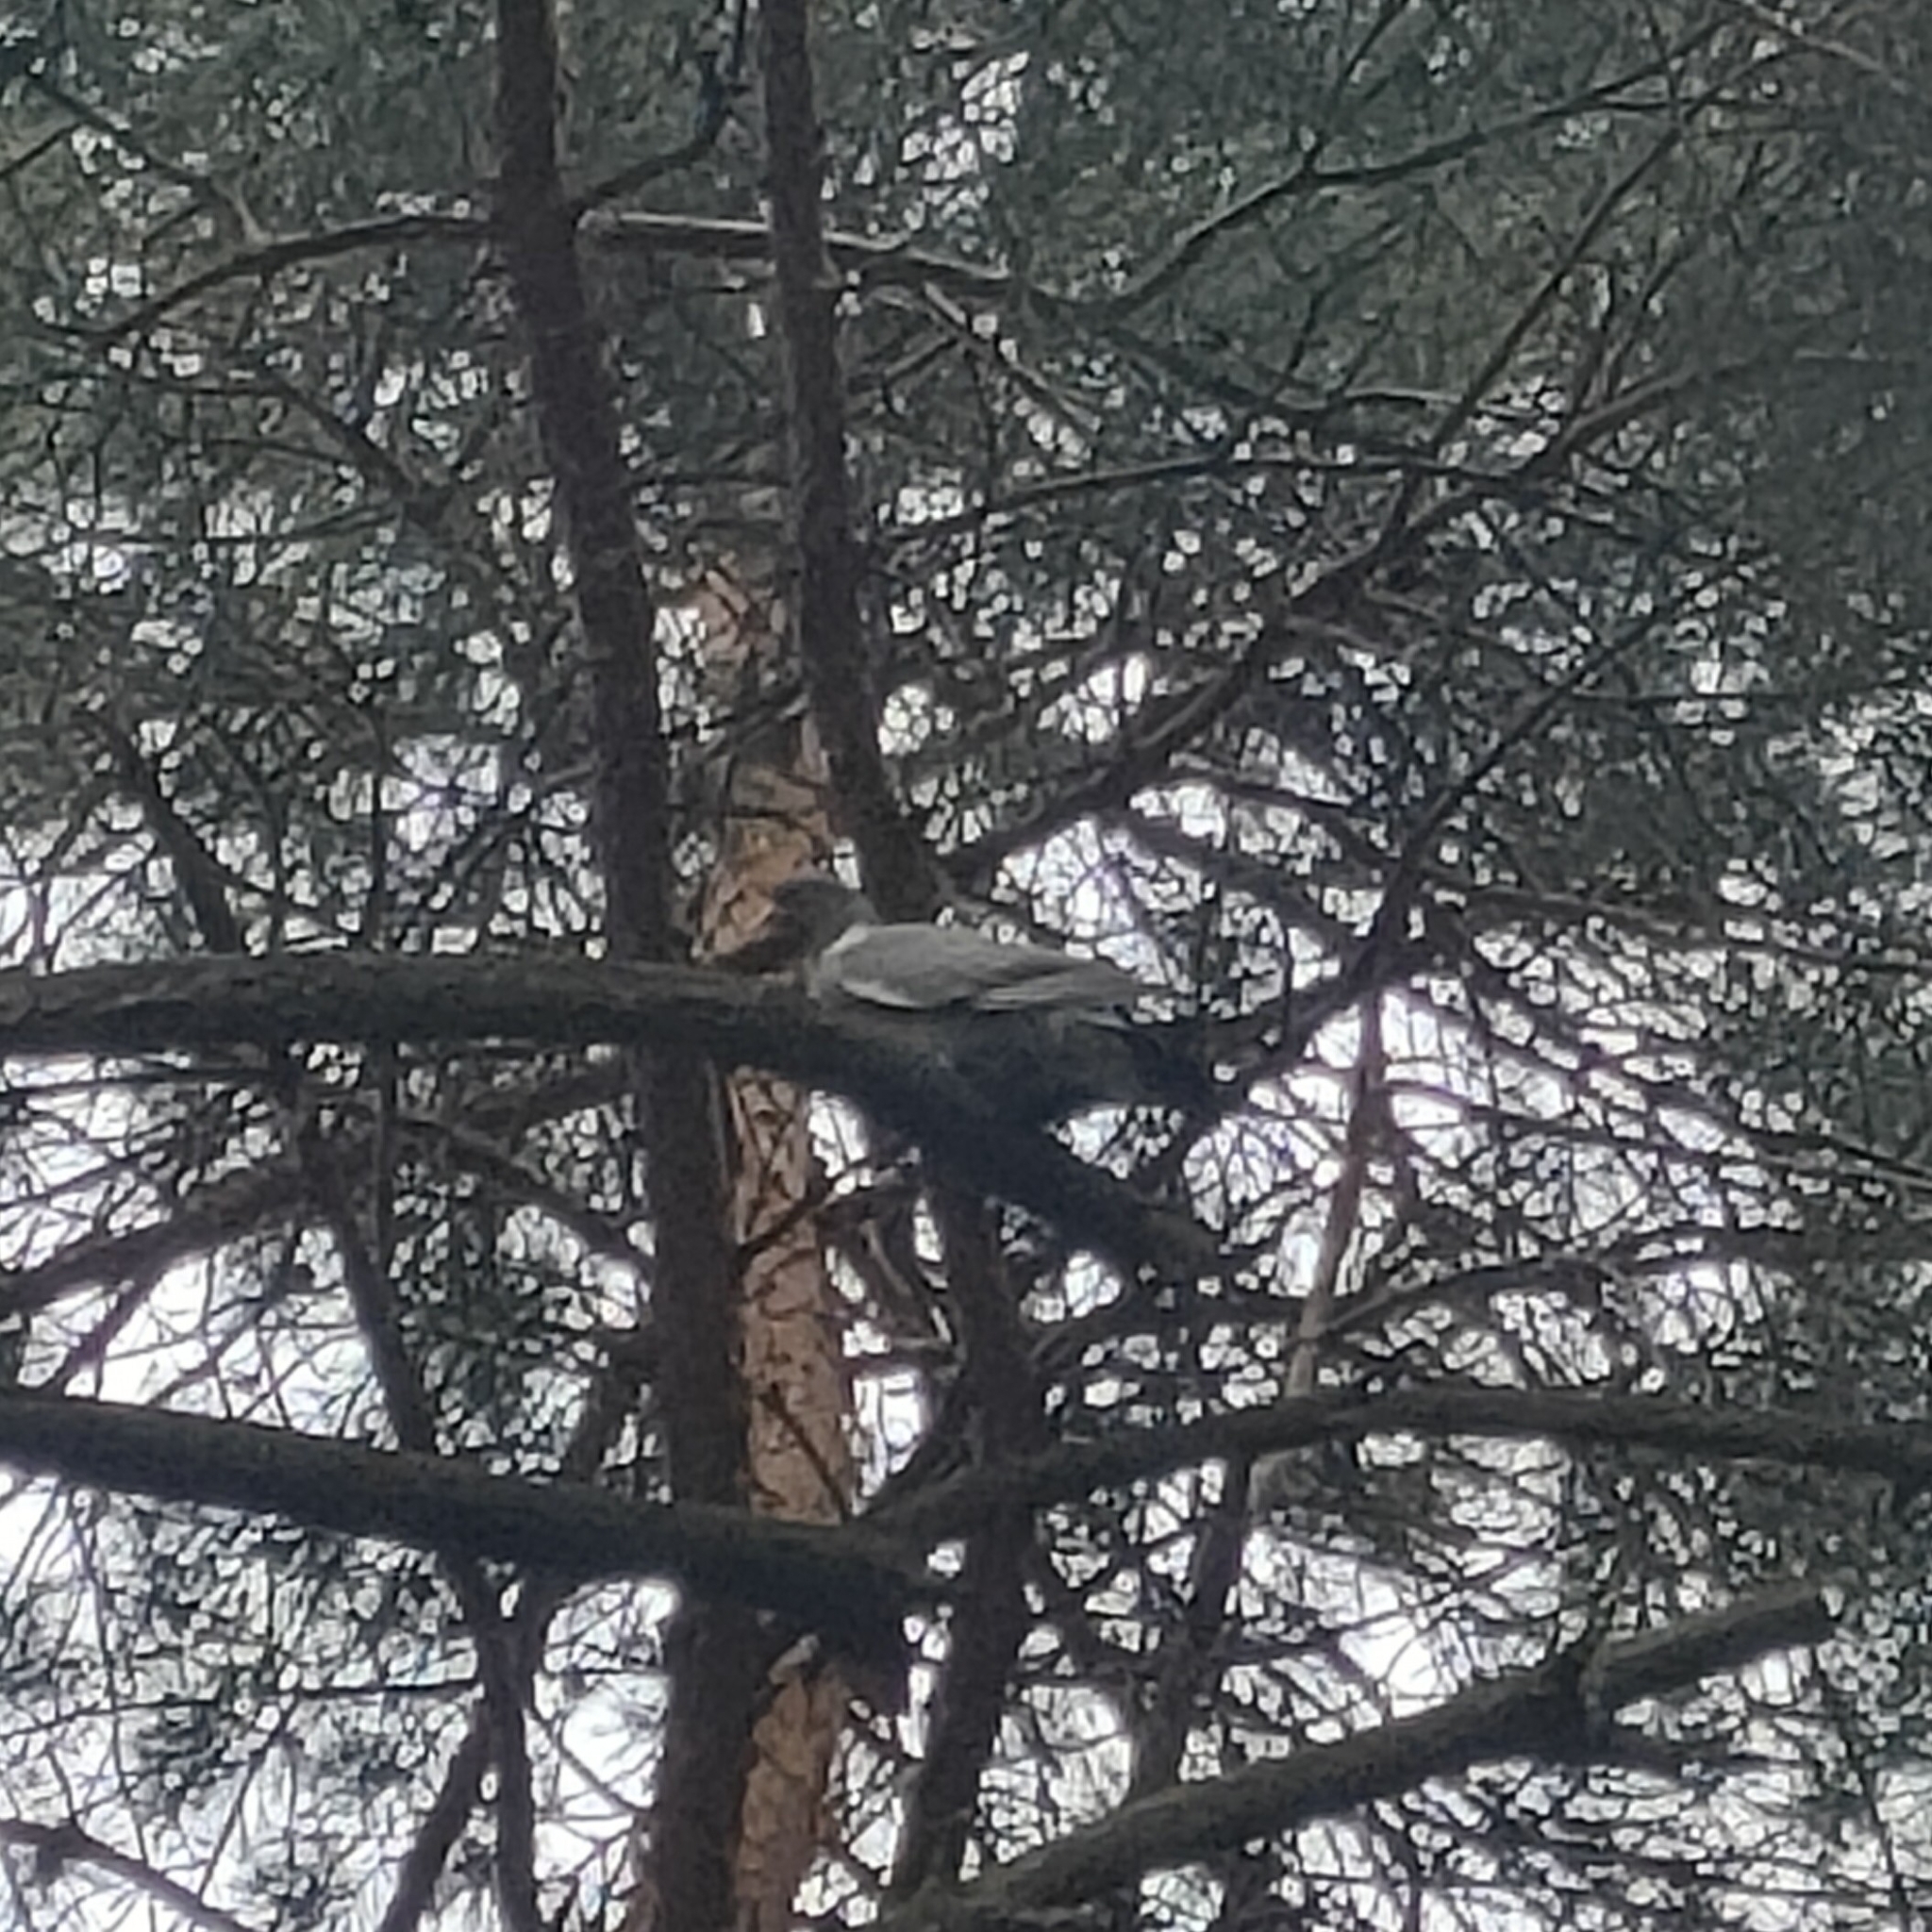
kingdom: Animalia
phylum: Chordata
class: Aves
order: Columbiformes
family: Columbidae
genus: Columba
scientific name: Columba palumbus
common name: Common wood pigeon
